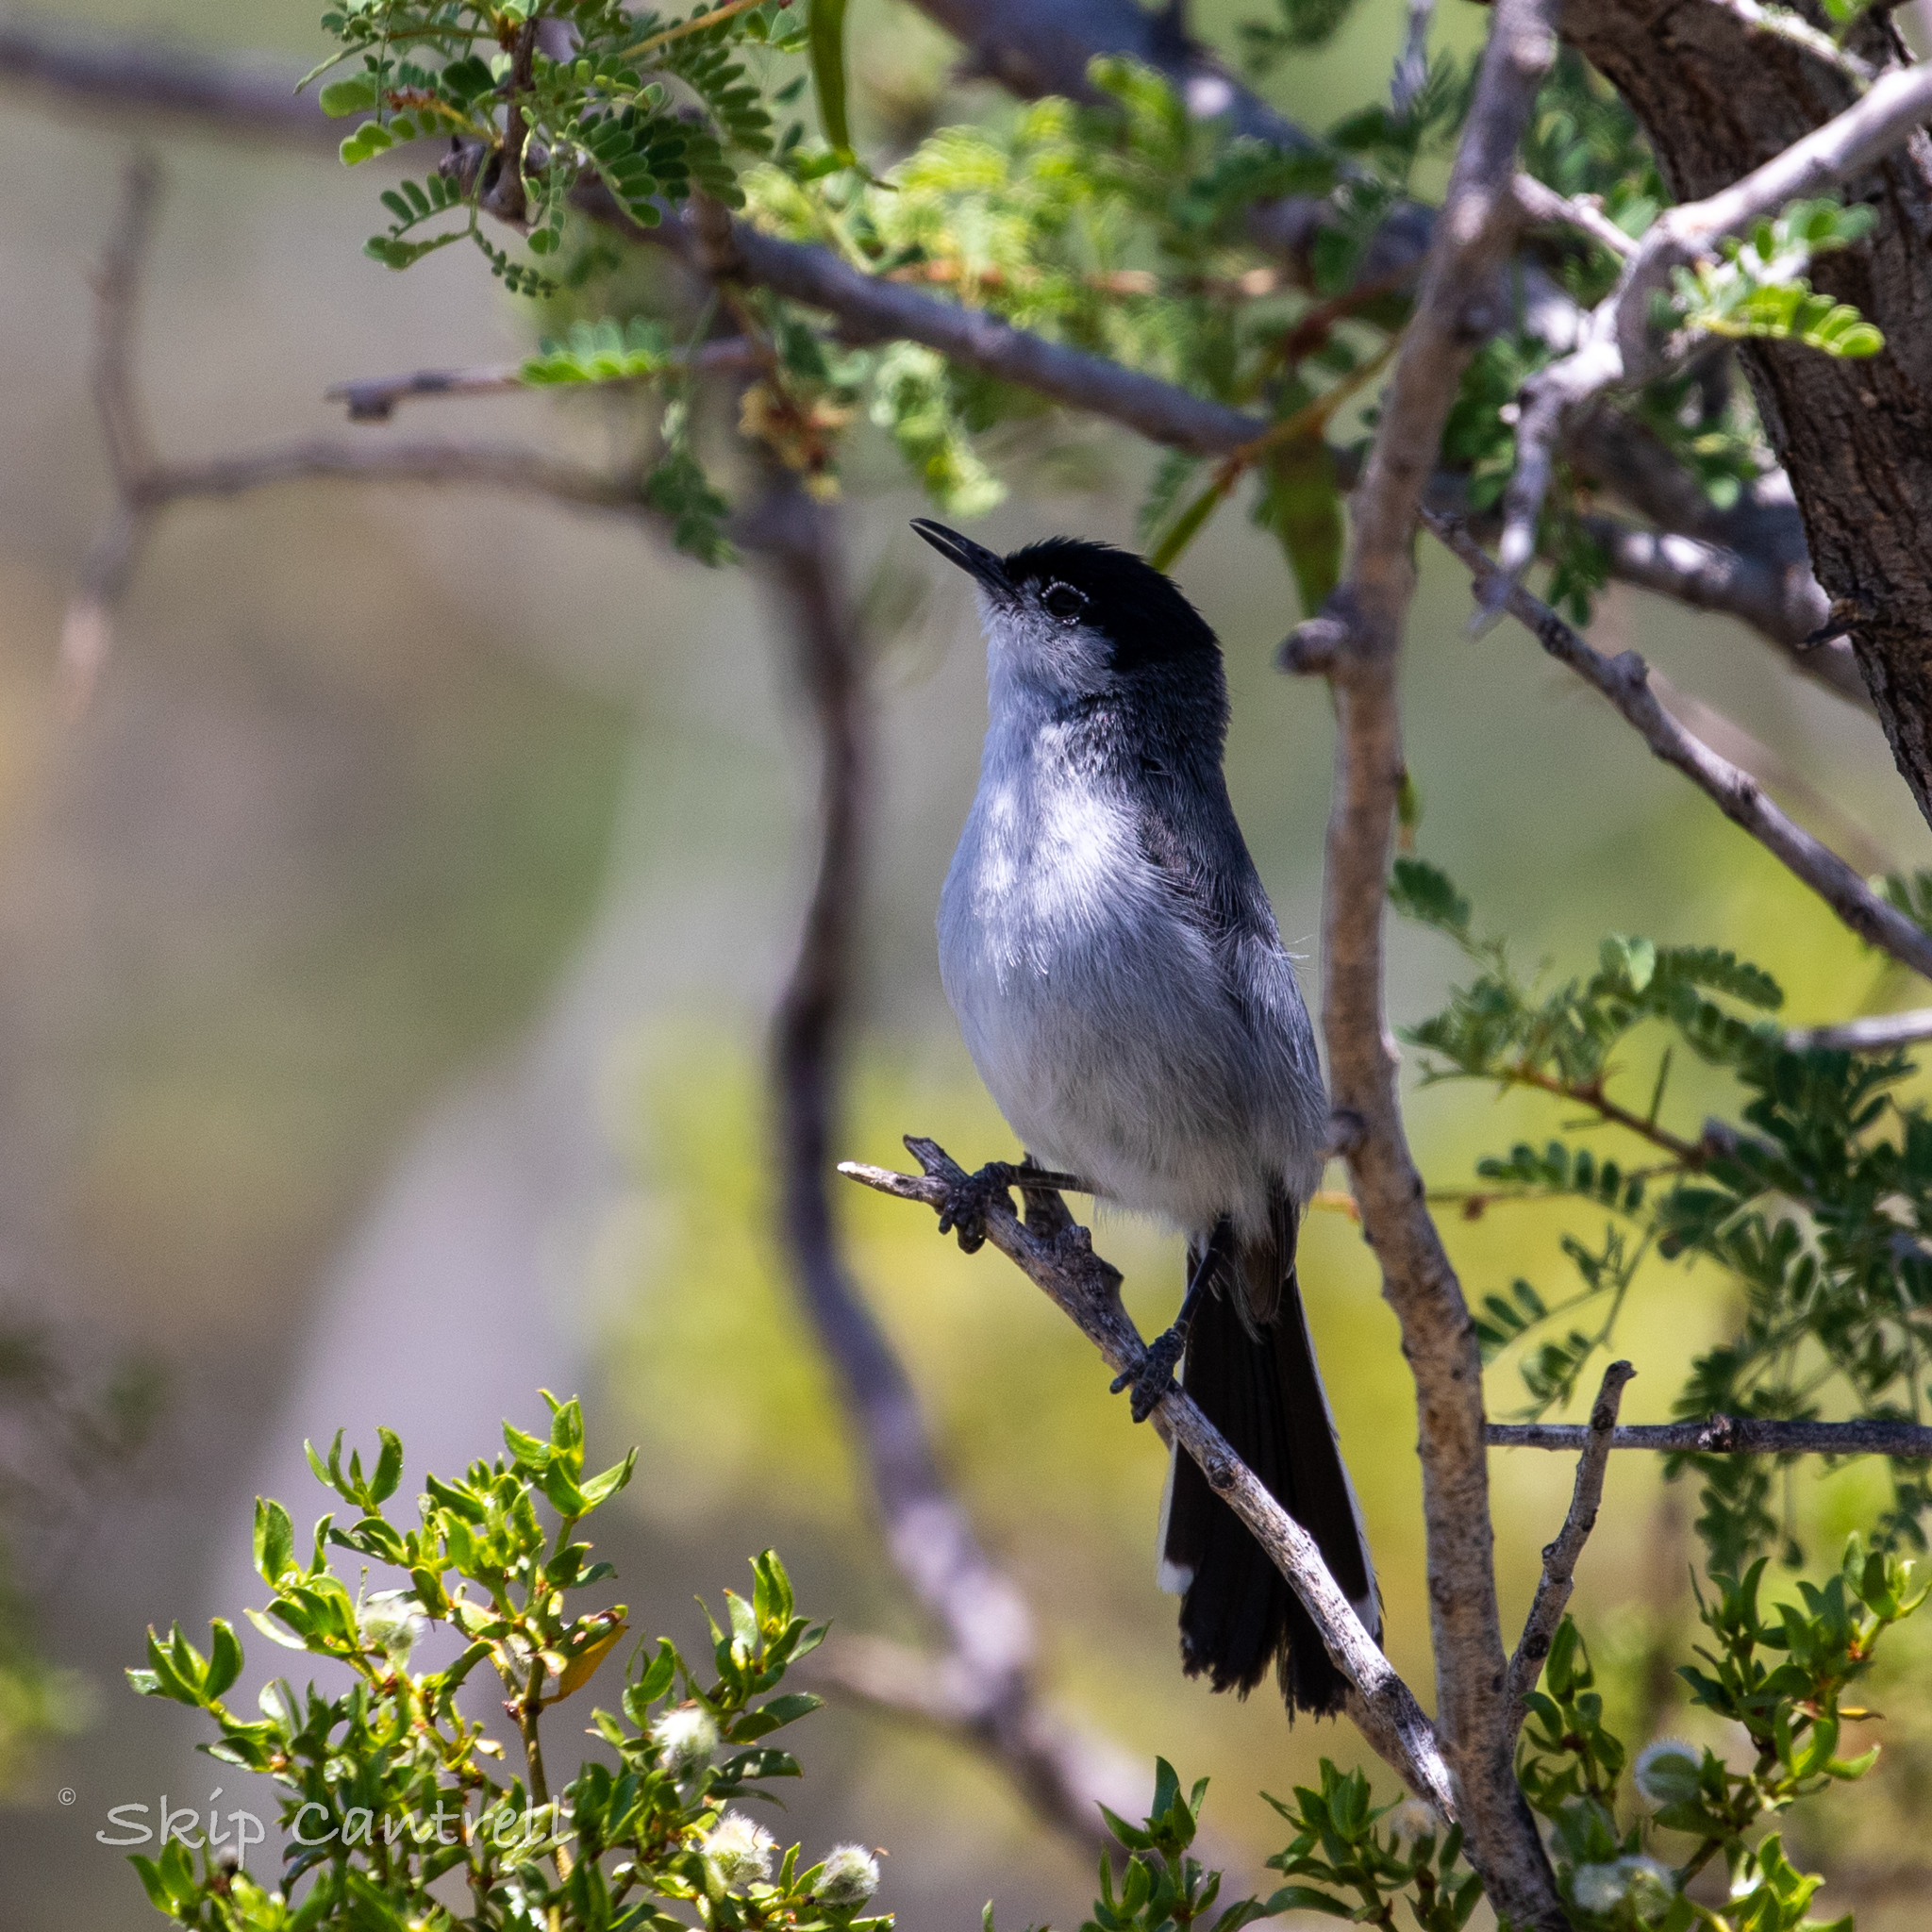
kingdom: Animalia
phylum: Chordata
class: Aves
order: Passeriformes
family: Polioptilidae
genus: Polioptila
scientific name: Polioptila melanura
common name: Black-tailed gnatcatcher
